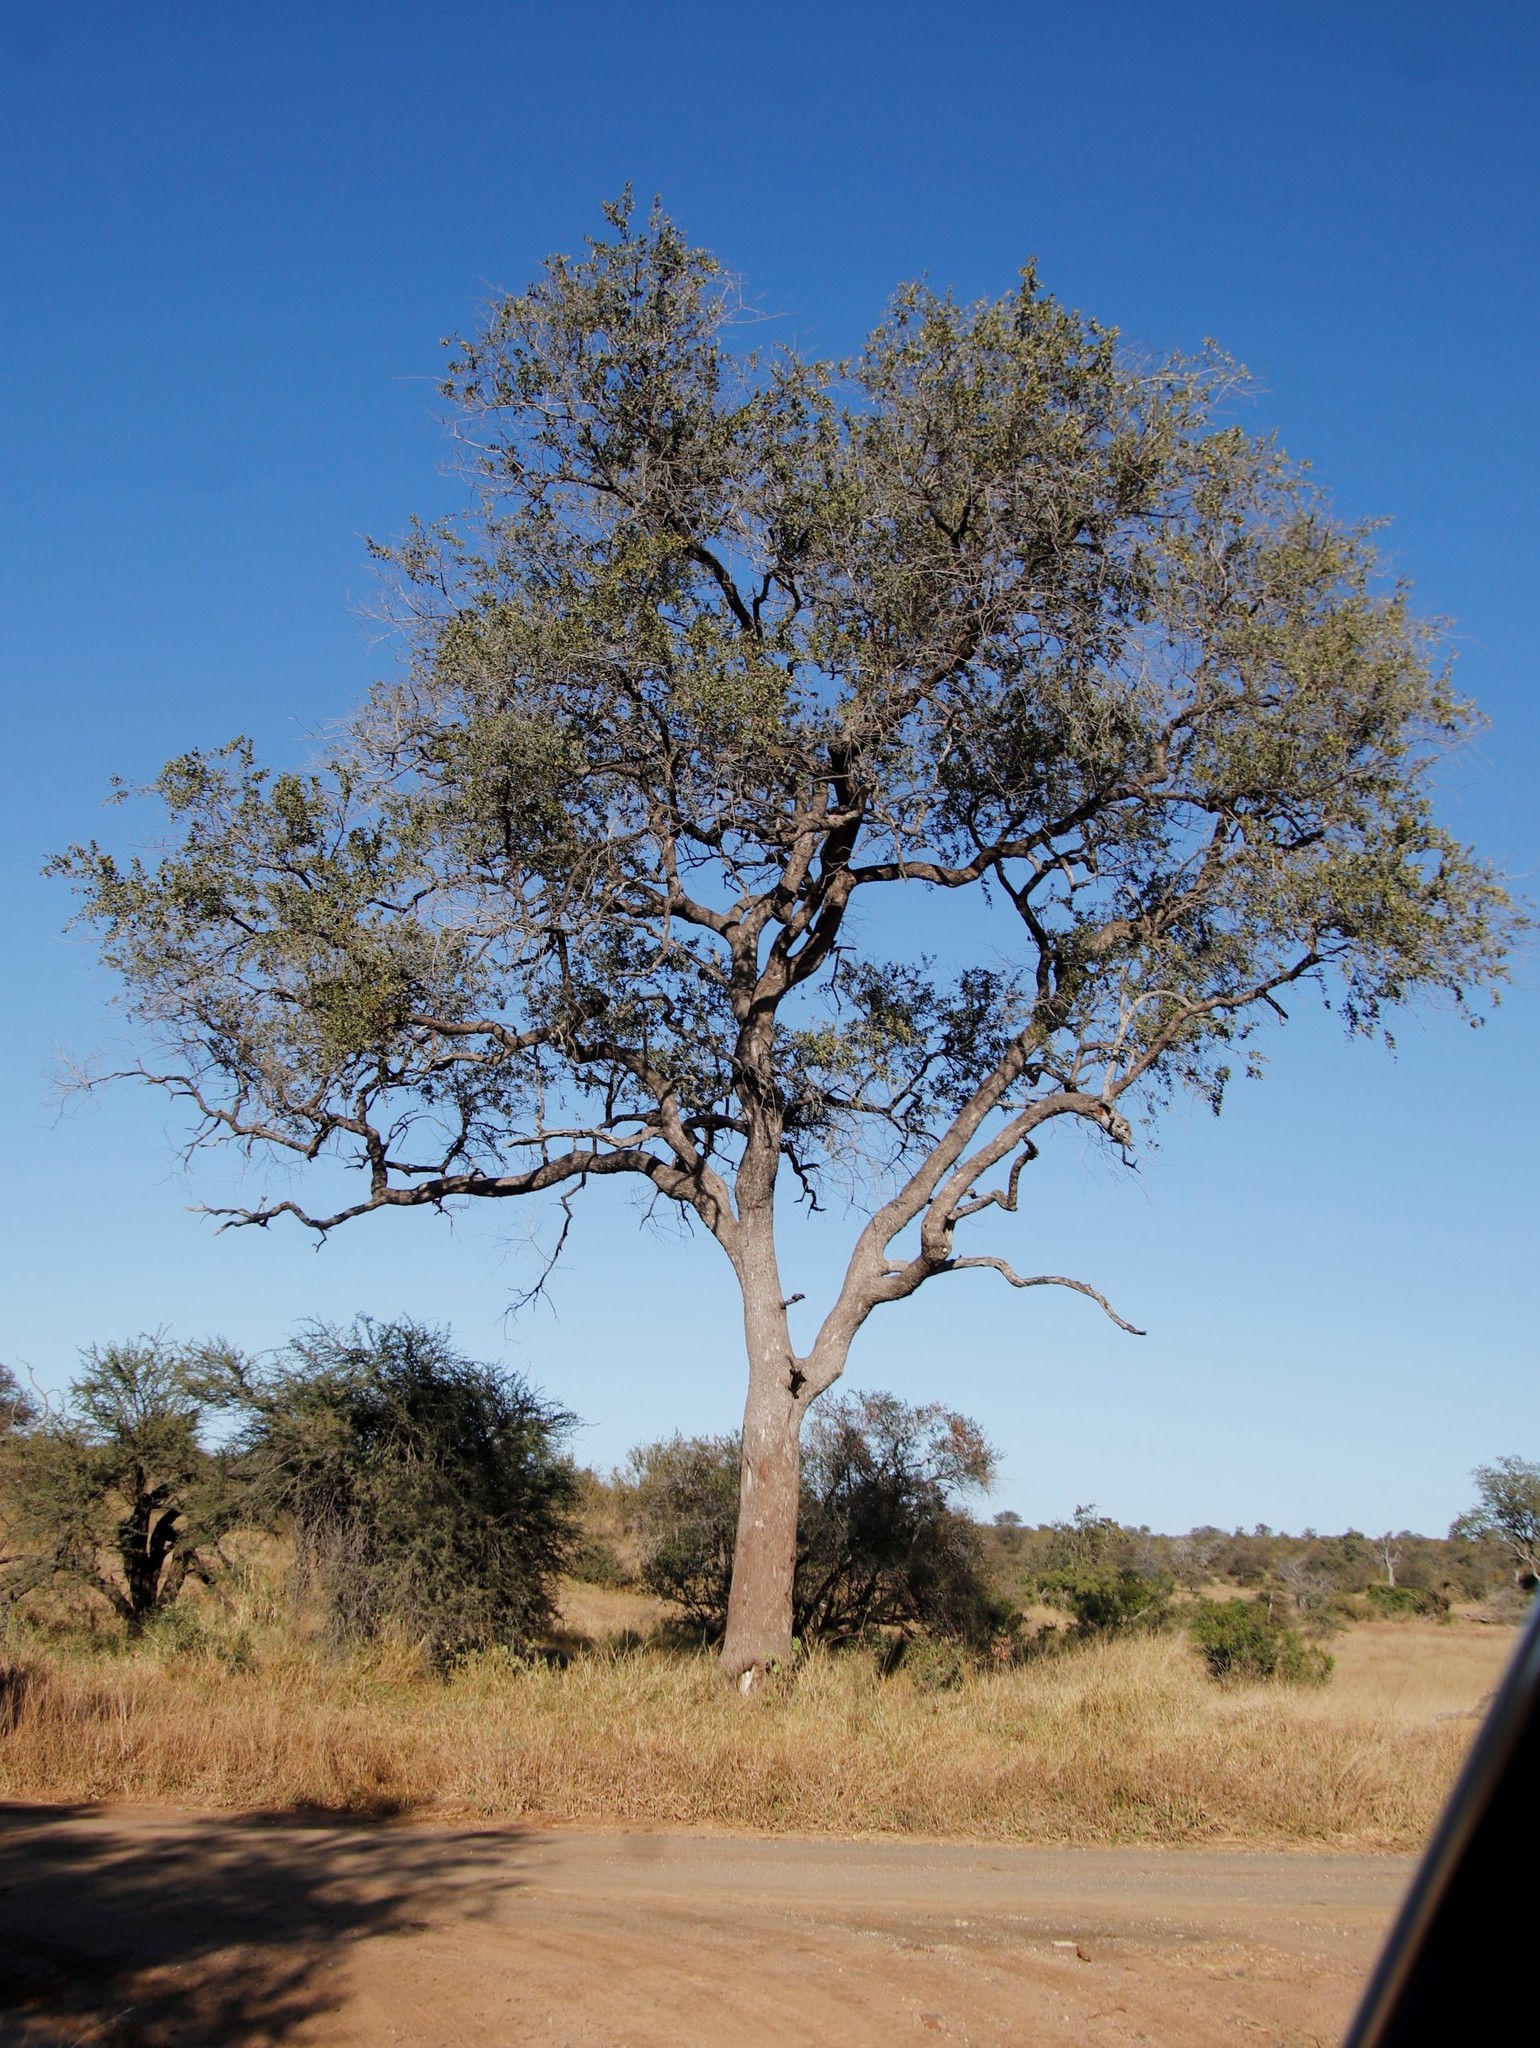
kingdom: Plantae
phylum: Tracheophyta
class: Magnoliopsida
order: Myrtales
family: Combretaceae
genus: Combretum
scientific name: Combretum imberbe
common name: Leadwood
